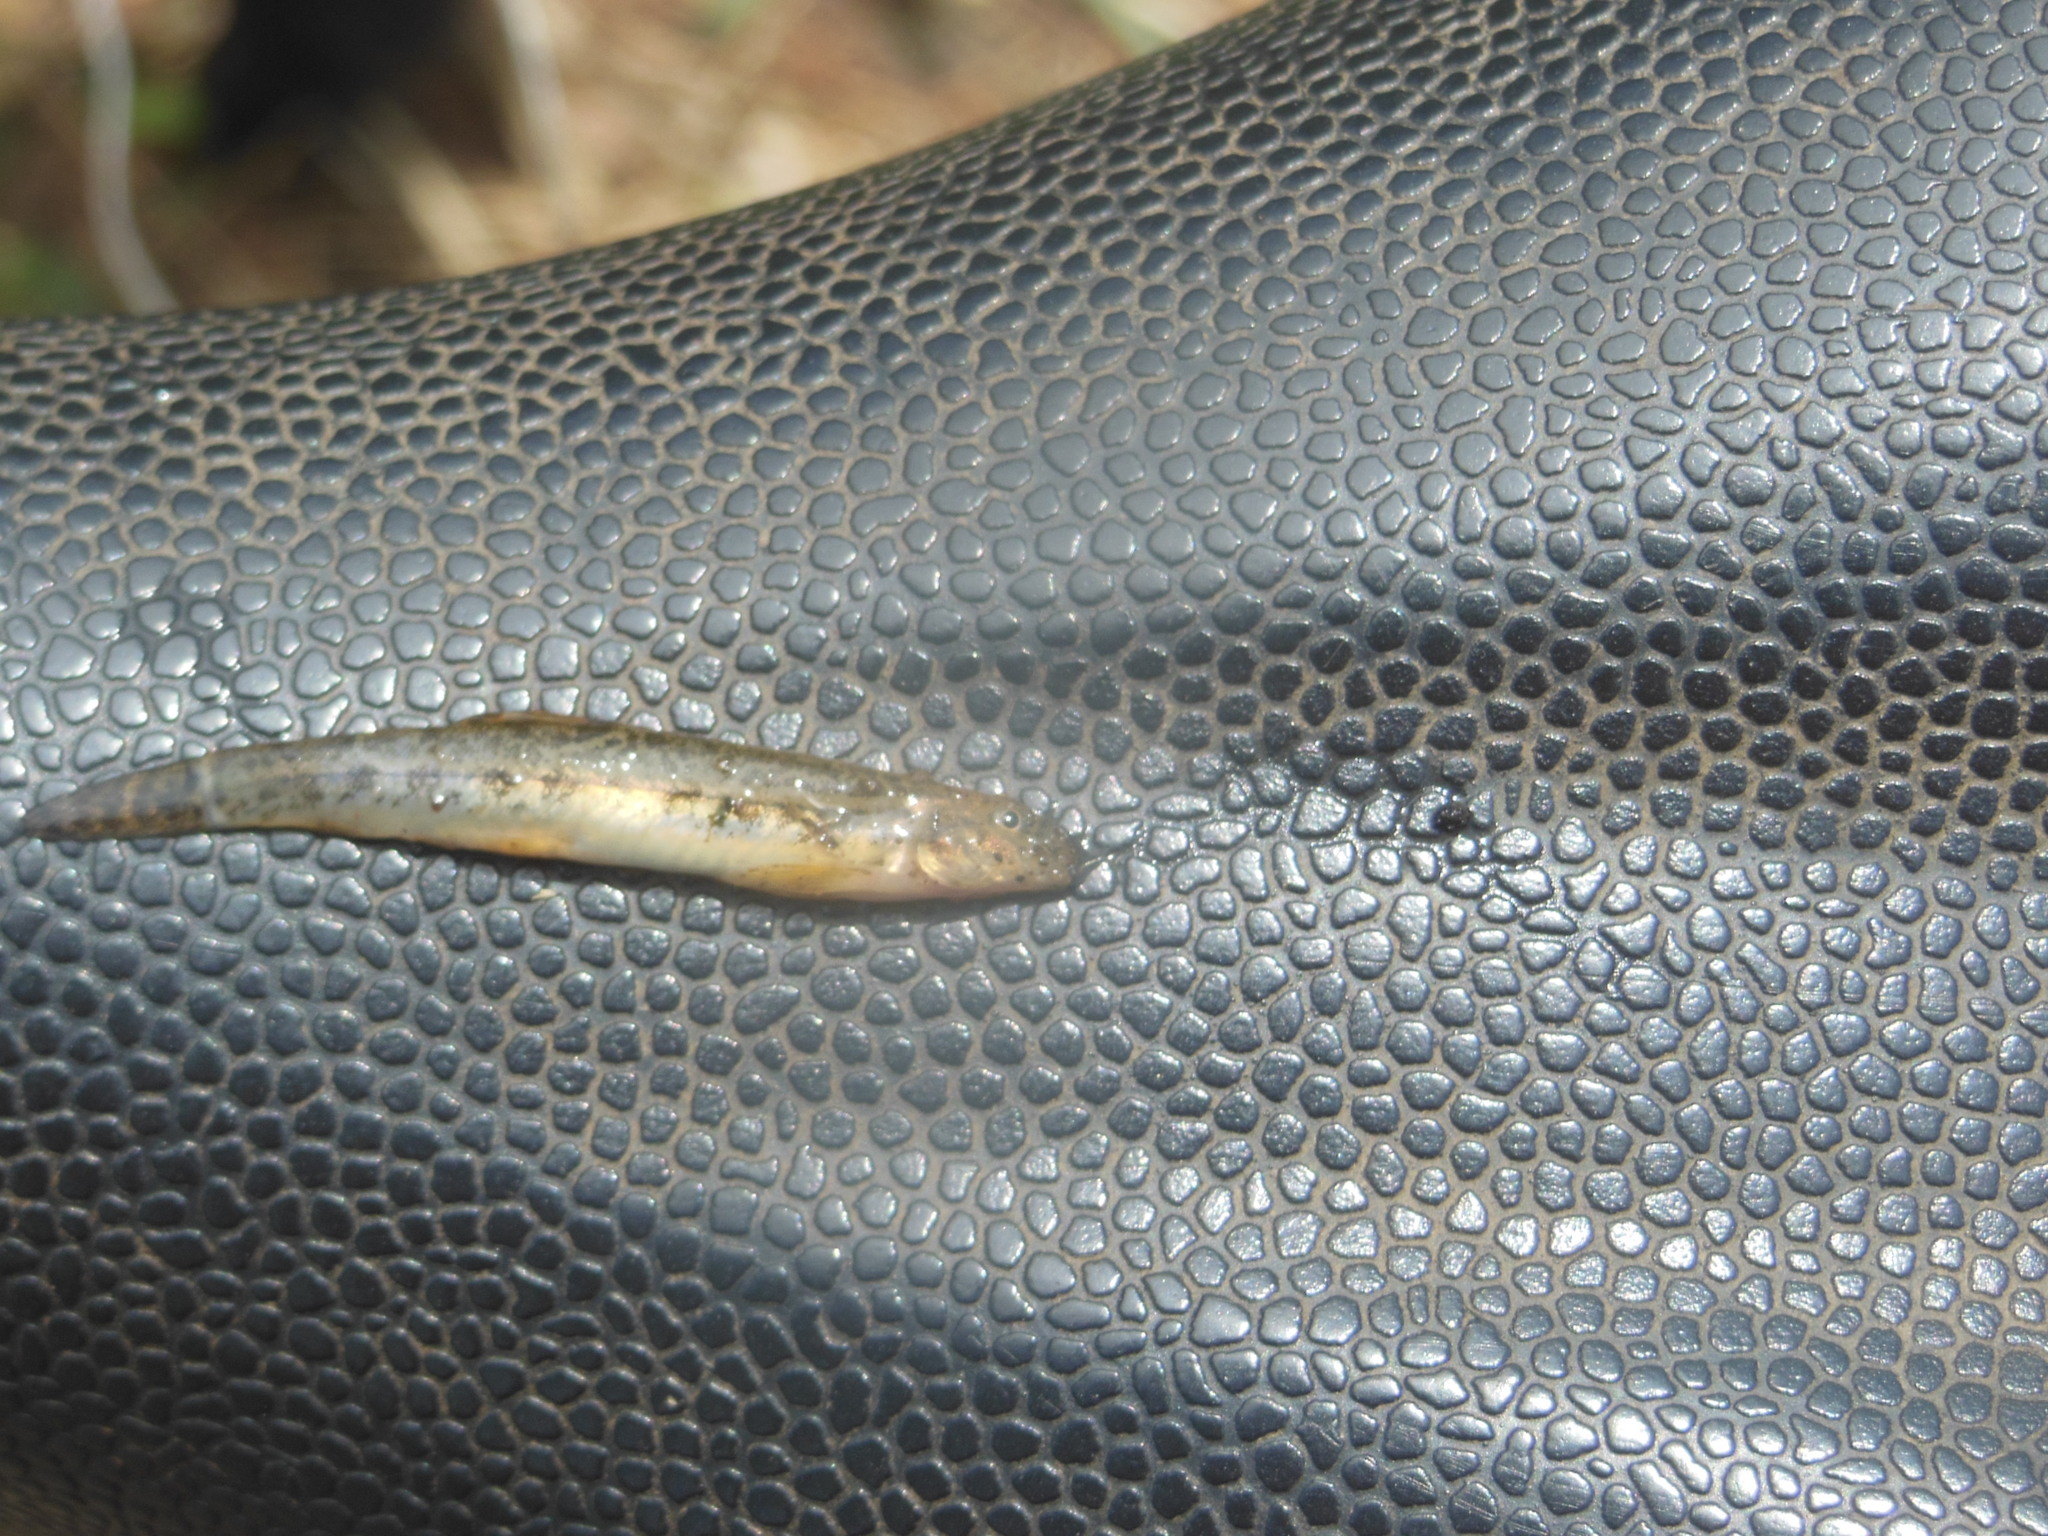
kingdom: Animalia
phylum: Chordata
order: Cypriniformes
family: Cobitidae
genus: Lepidocephalichthys
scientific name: Lepidocephalichthys thermalis
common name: Common spiny loach
